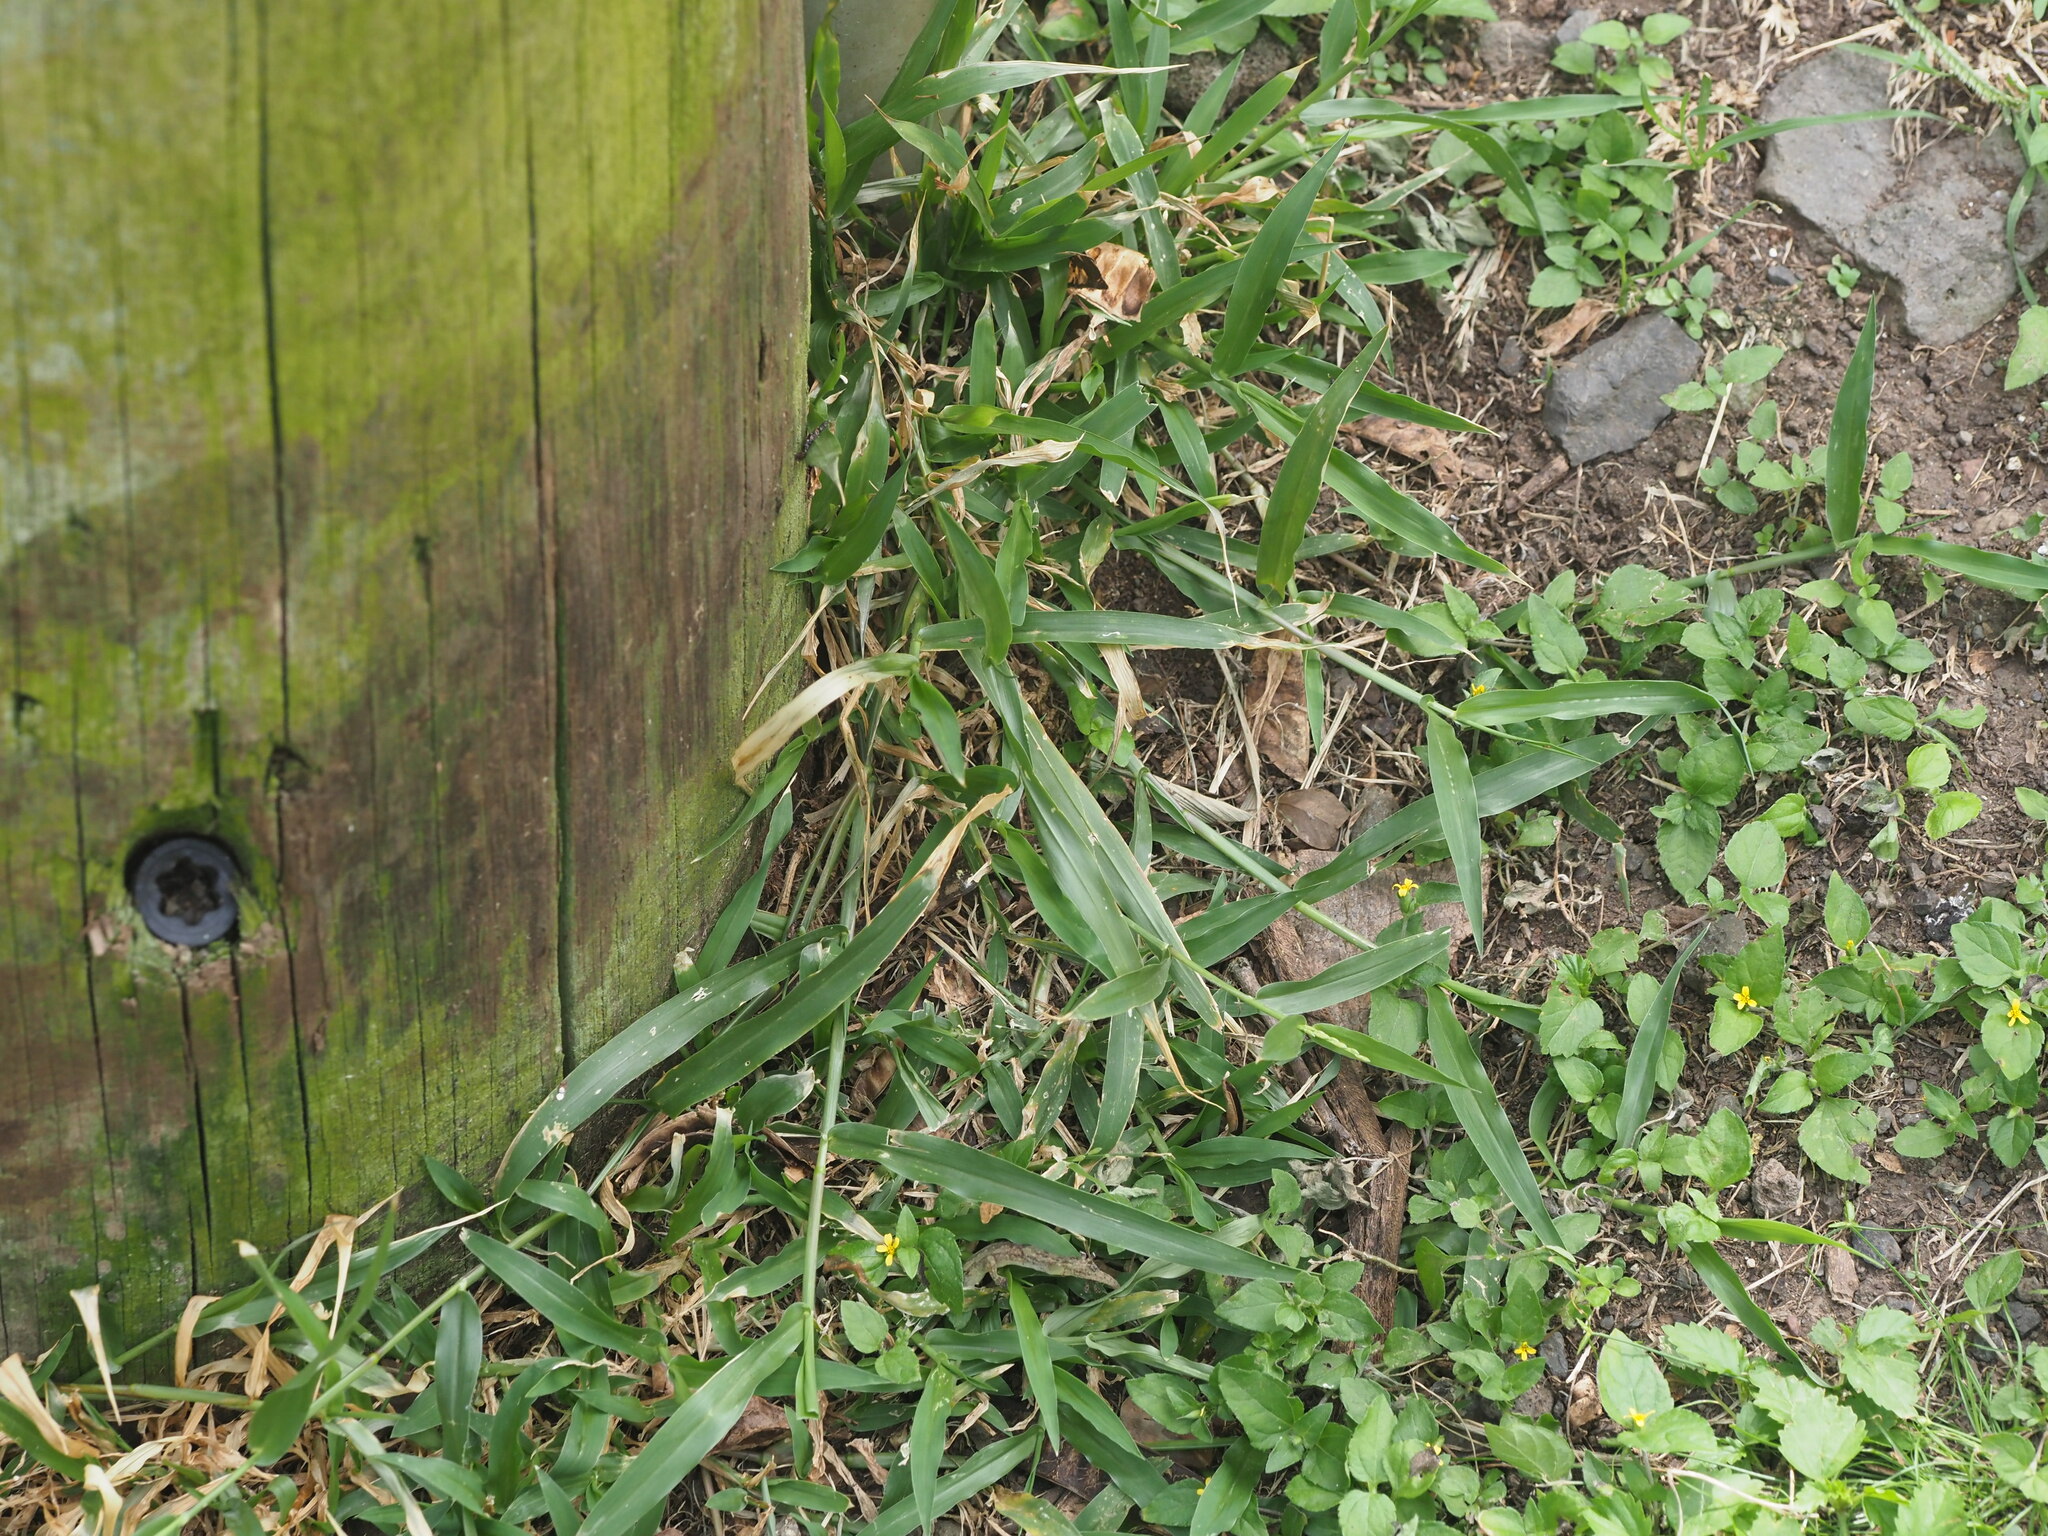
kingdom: Plantae
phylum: Tracheophyta
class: Liliopsida
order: Poales
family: Poaceae
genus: Urochloa
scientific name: Urochloa distachyos
